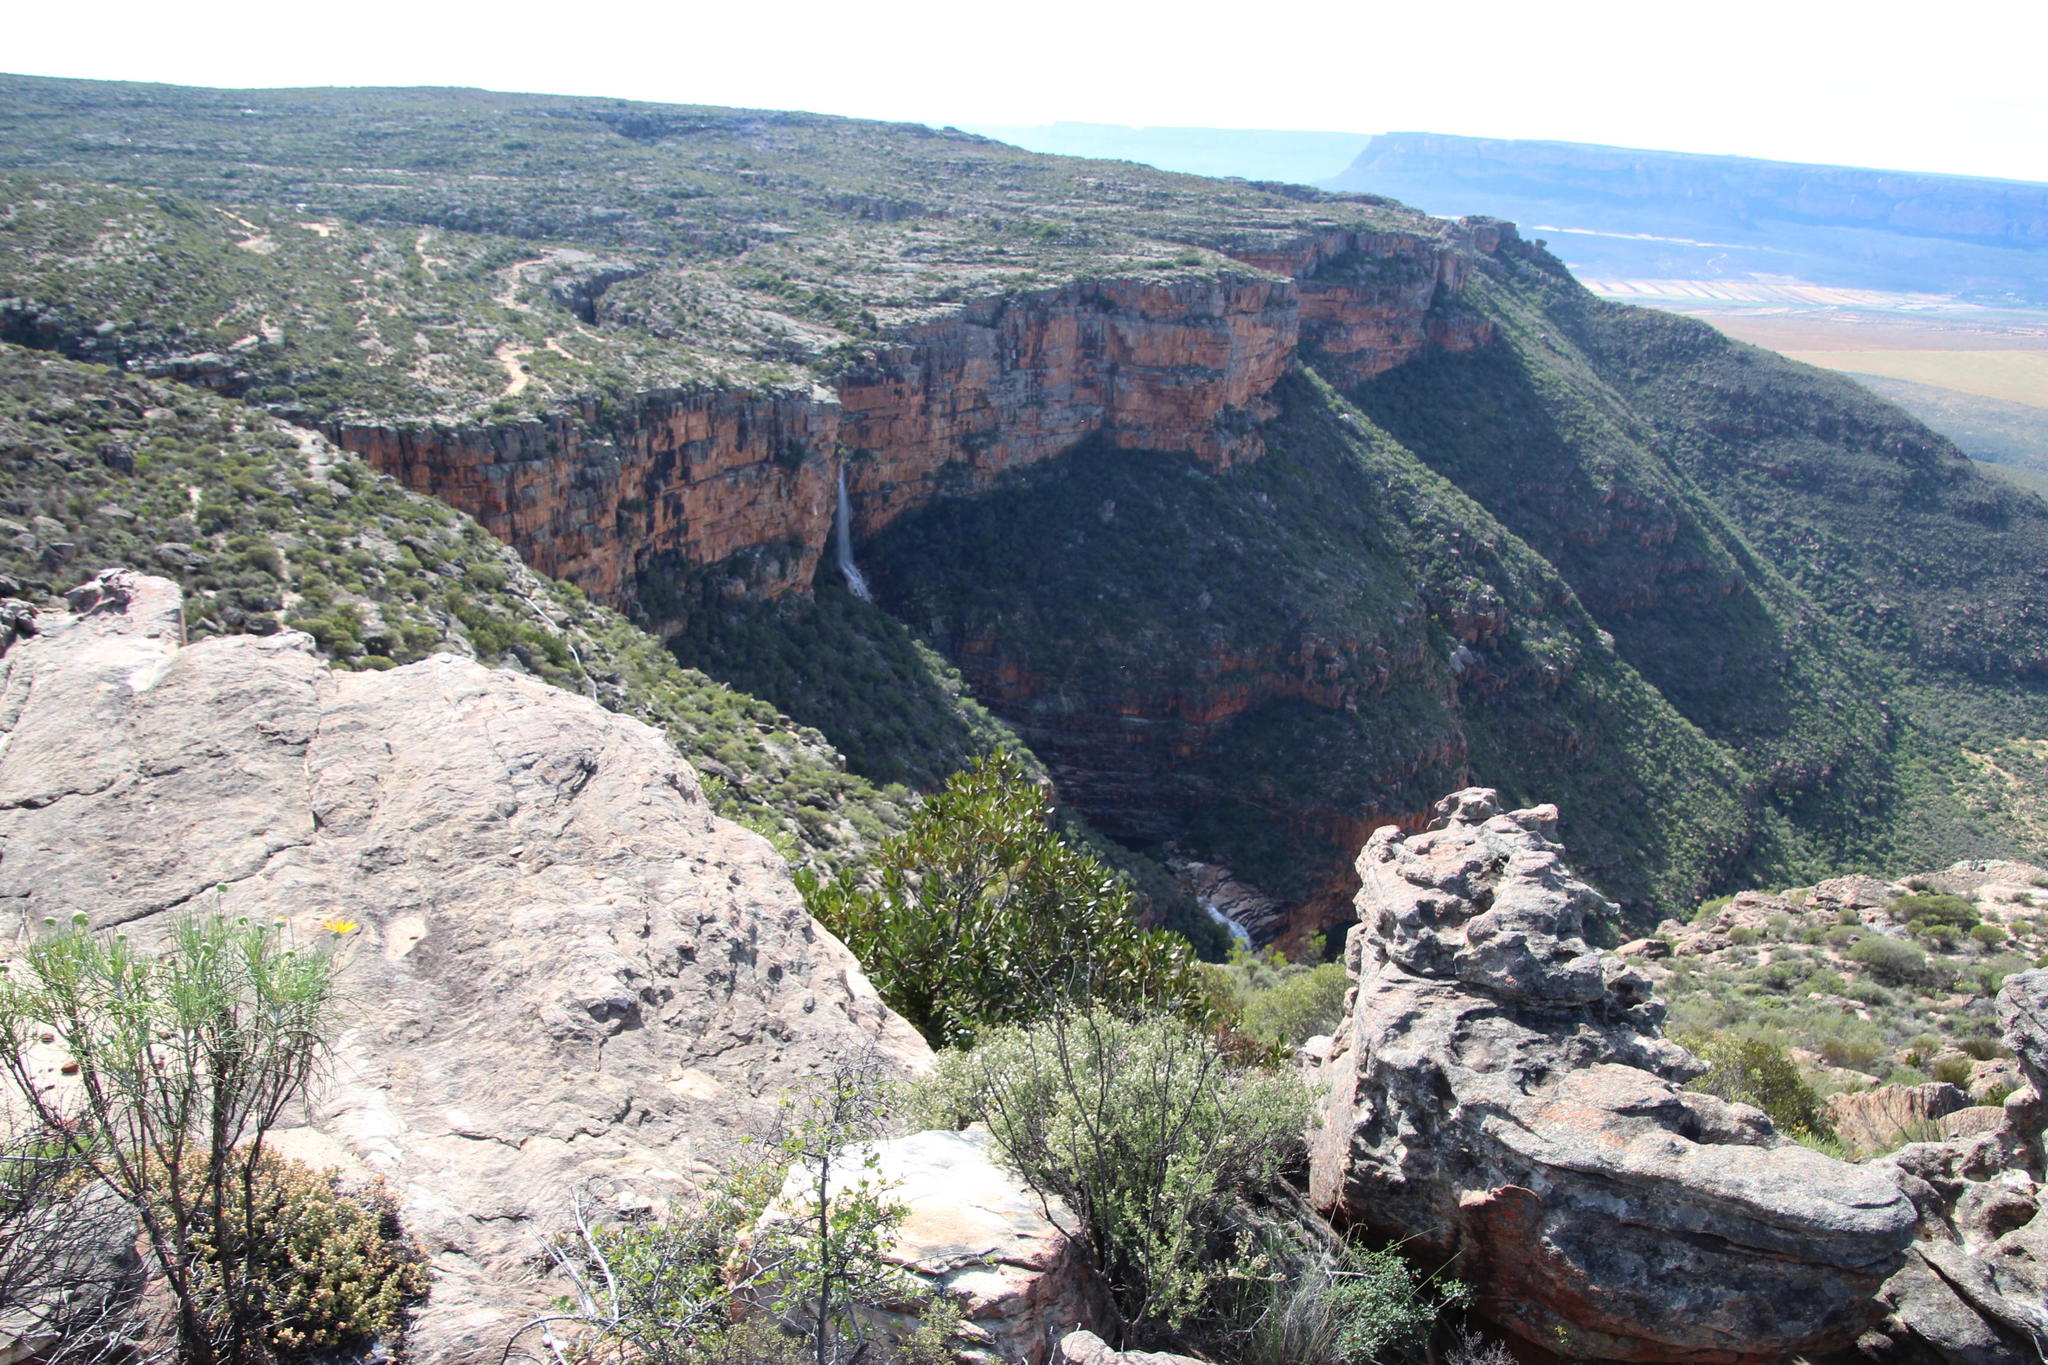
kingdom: Plantae
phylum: Tracheophyta
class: Magnoliopsida
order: Malpighiales
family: Picrodendraceae
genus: Hyaenanche
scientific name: Hyaenanche globosa
